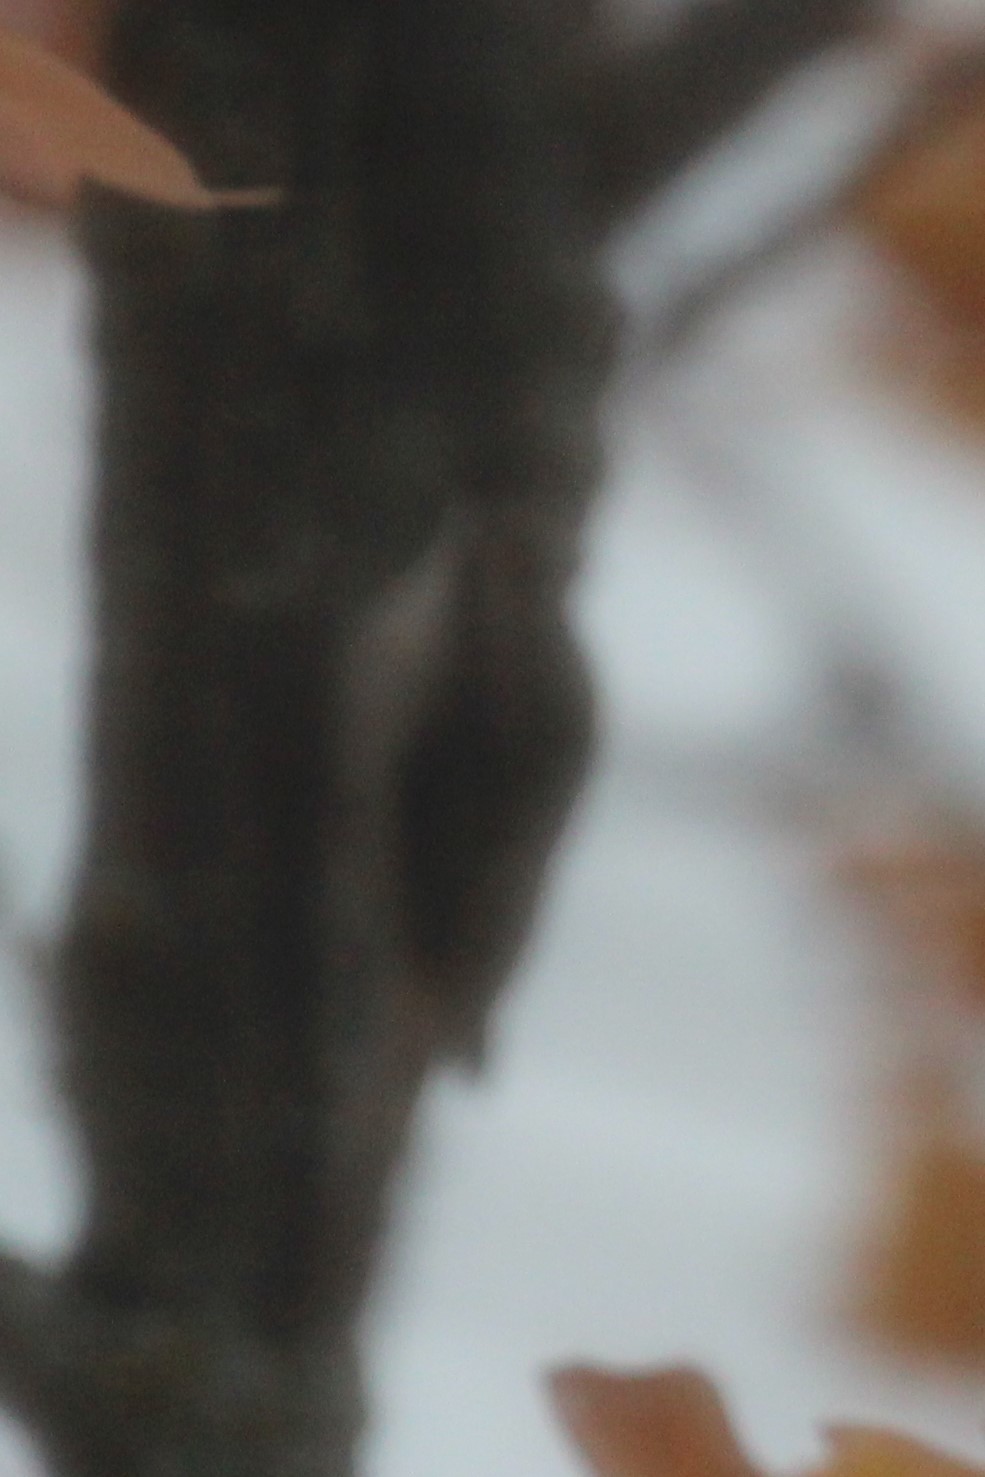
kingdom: Animalia
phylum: Chordata
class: Aves
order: Passeriformes
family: Certhiidae
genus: Certhia
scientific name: Certhia americana
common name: Brown creeper
